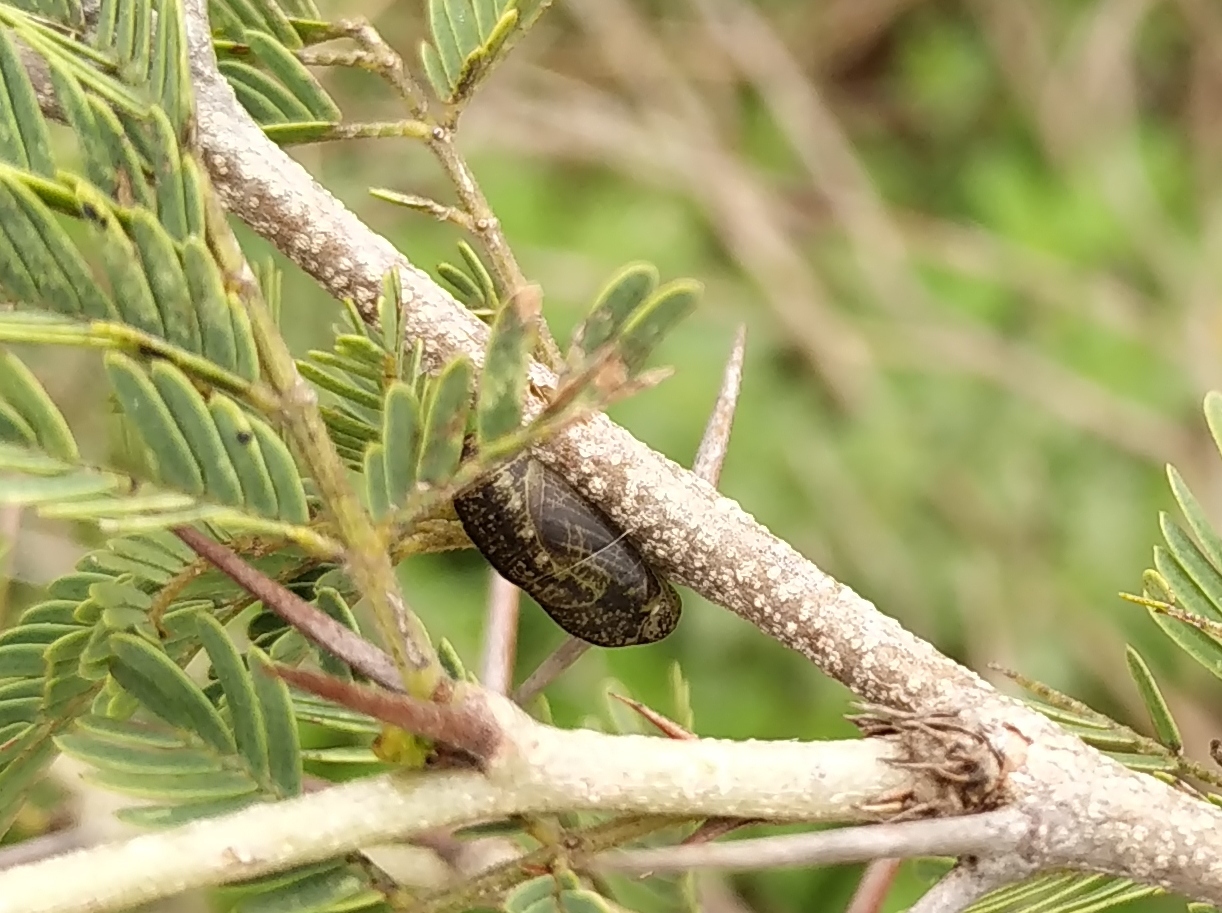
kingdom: Animalia
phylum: Arthropoda
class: Insecta
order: Lepidoptera
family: Lycaenidae
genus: Chilades
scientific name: Chilades parrhasius
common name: Small cupid
